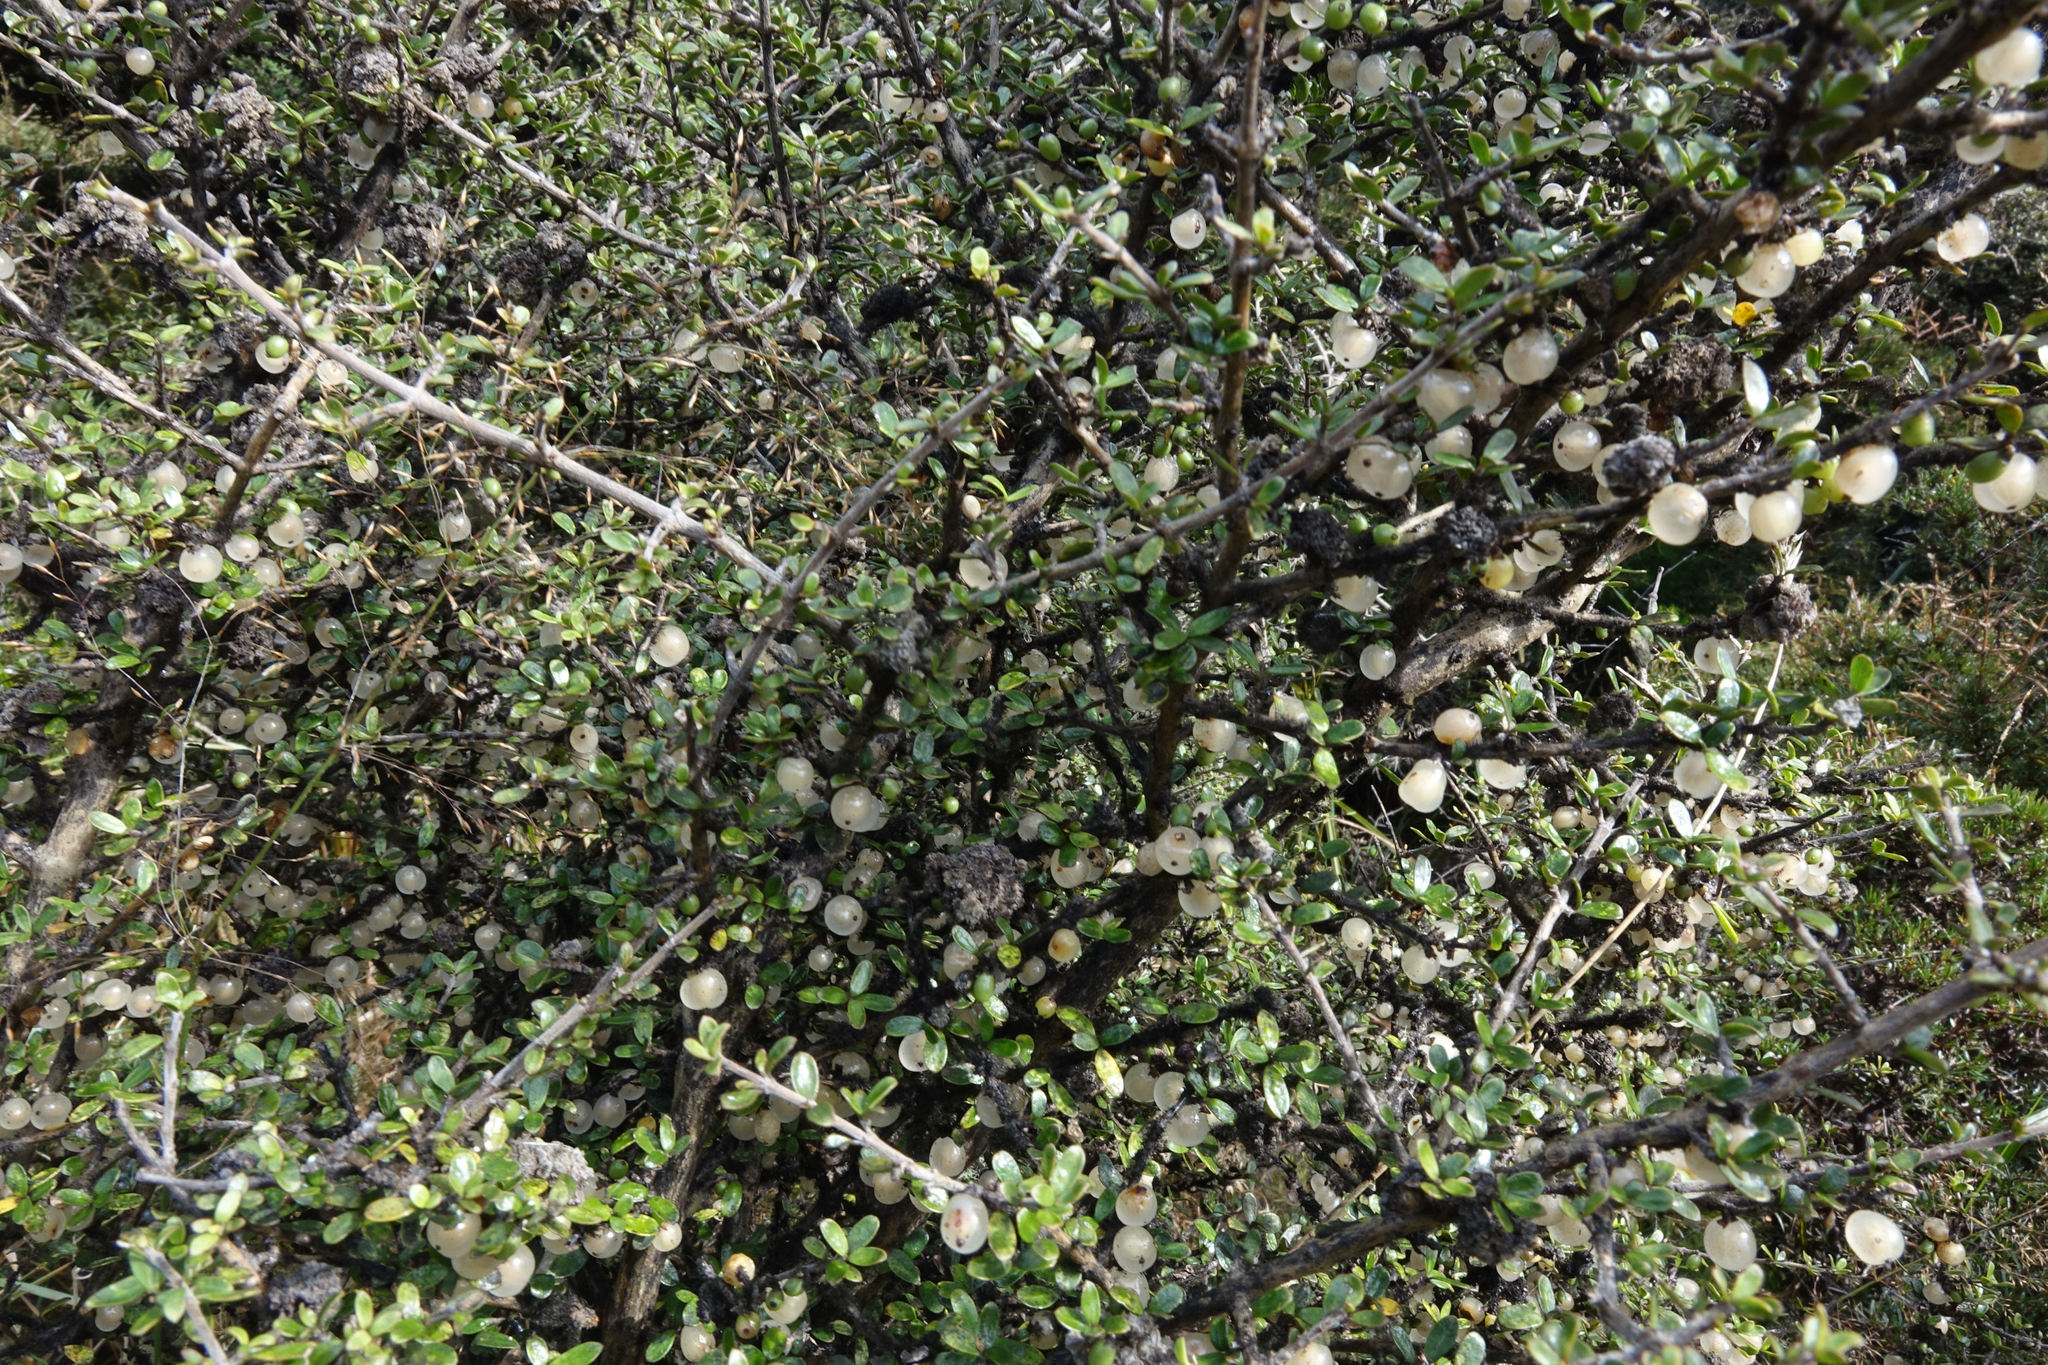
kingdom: Plantae
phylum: Tracheophyta
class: Magnoliopsida
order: Gentianales
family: Rubiaceae
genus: Coprosma
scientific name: Coprosma dumosa
